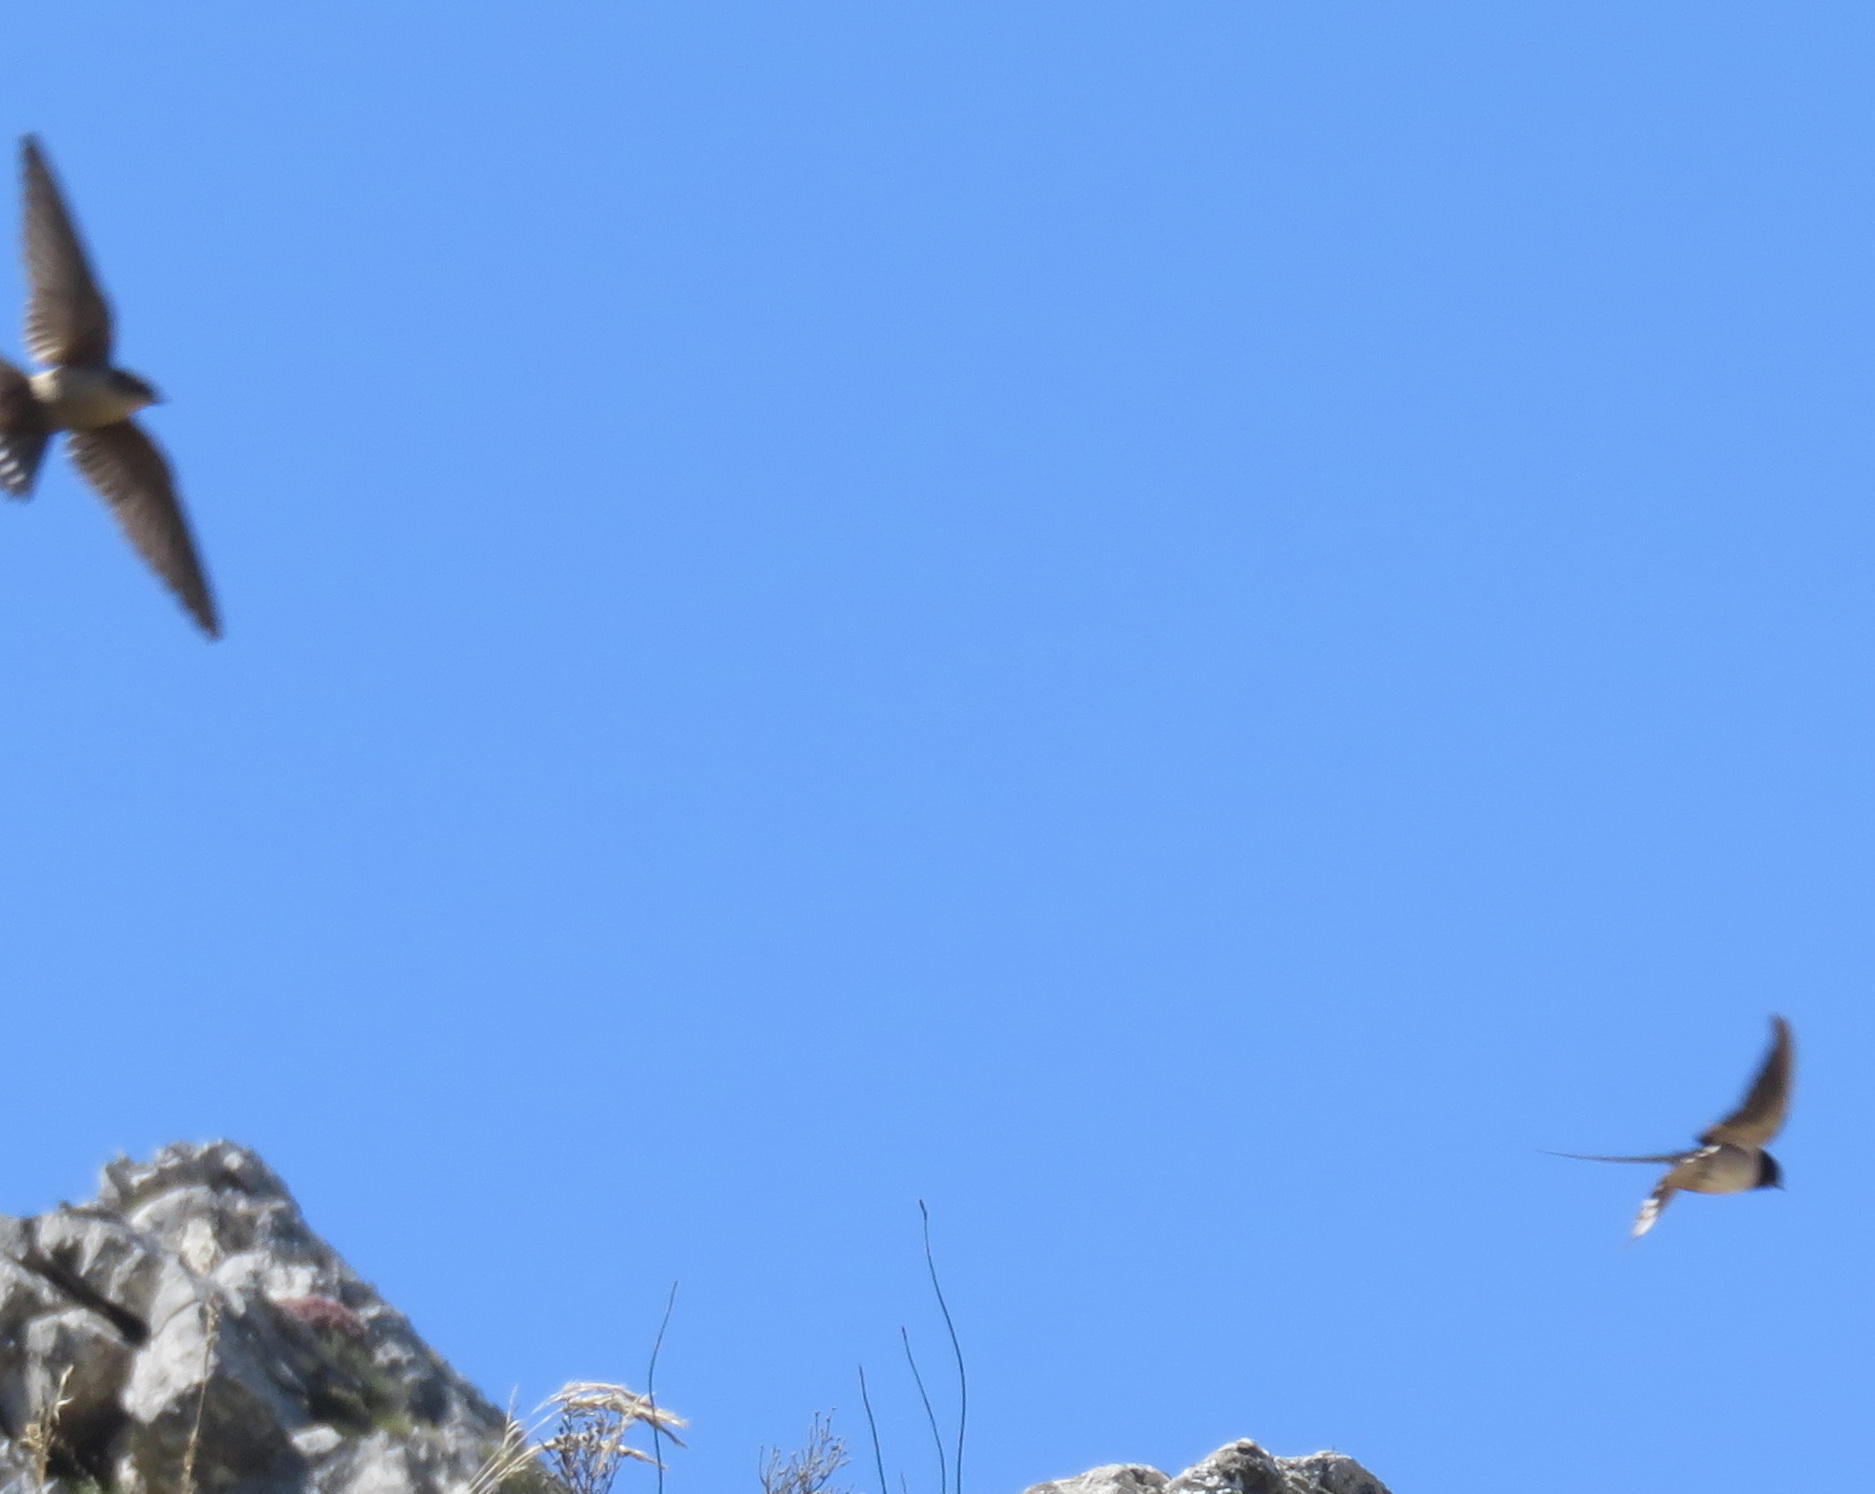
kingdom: Animalia
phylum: Chordata
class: Aves
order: Passeriformes
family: Hirundinidae
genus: Hirundo
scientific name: Hirundo rustica
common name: Barn swallow
